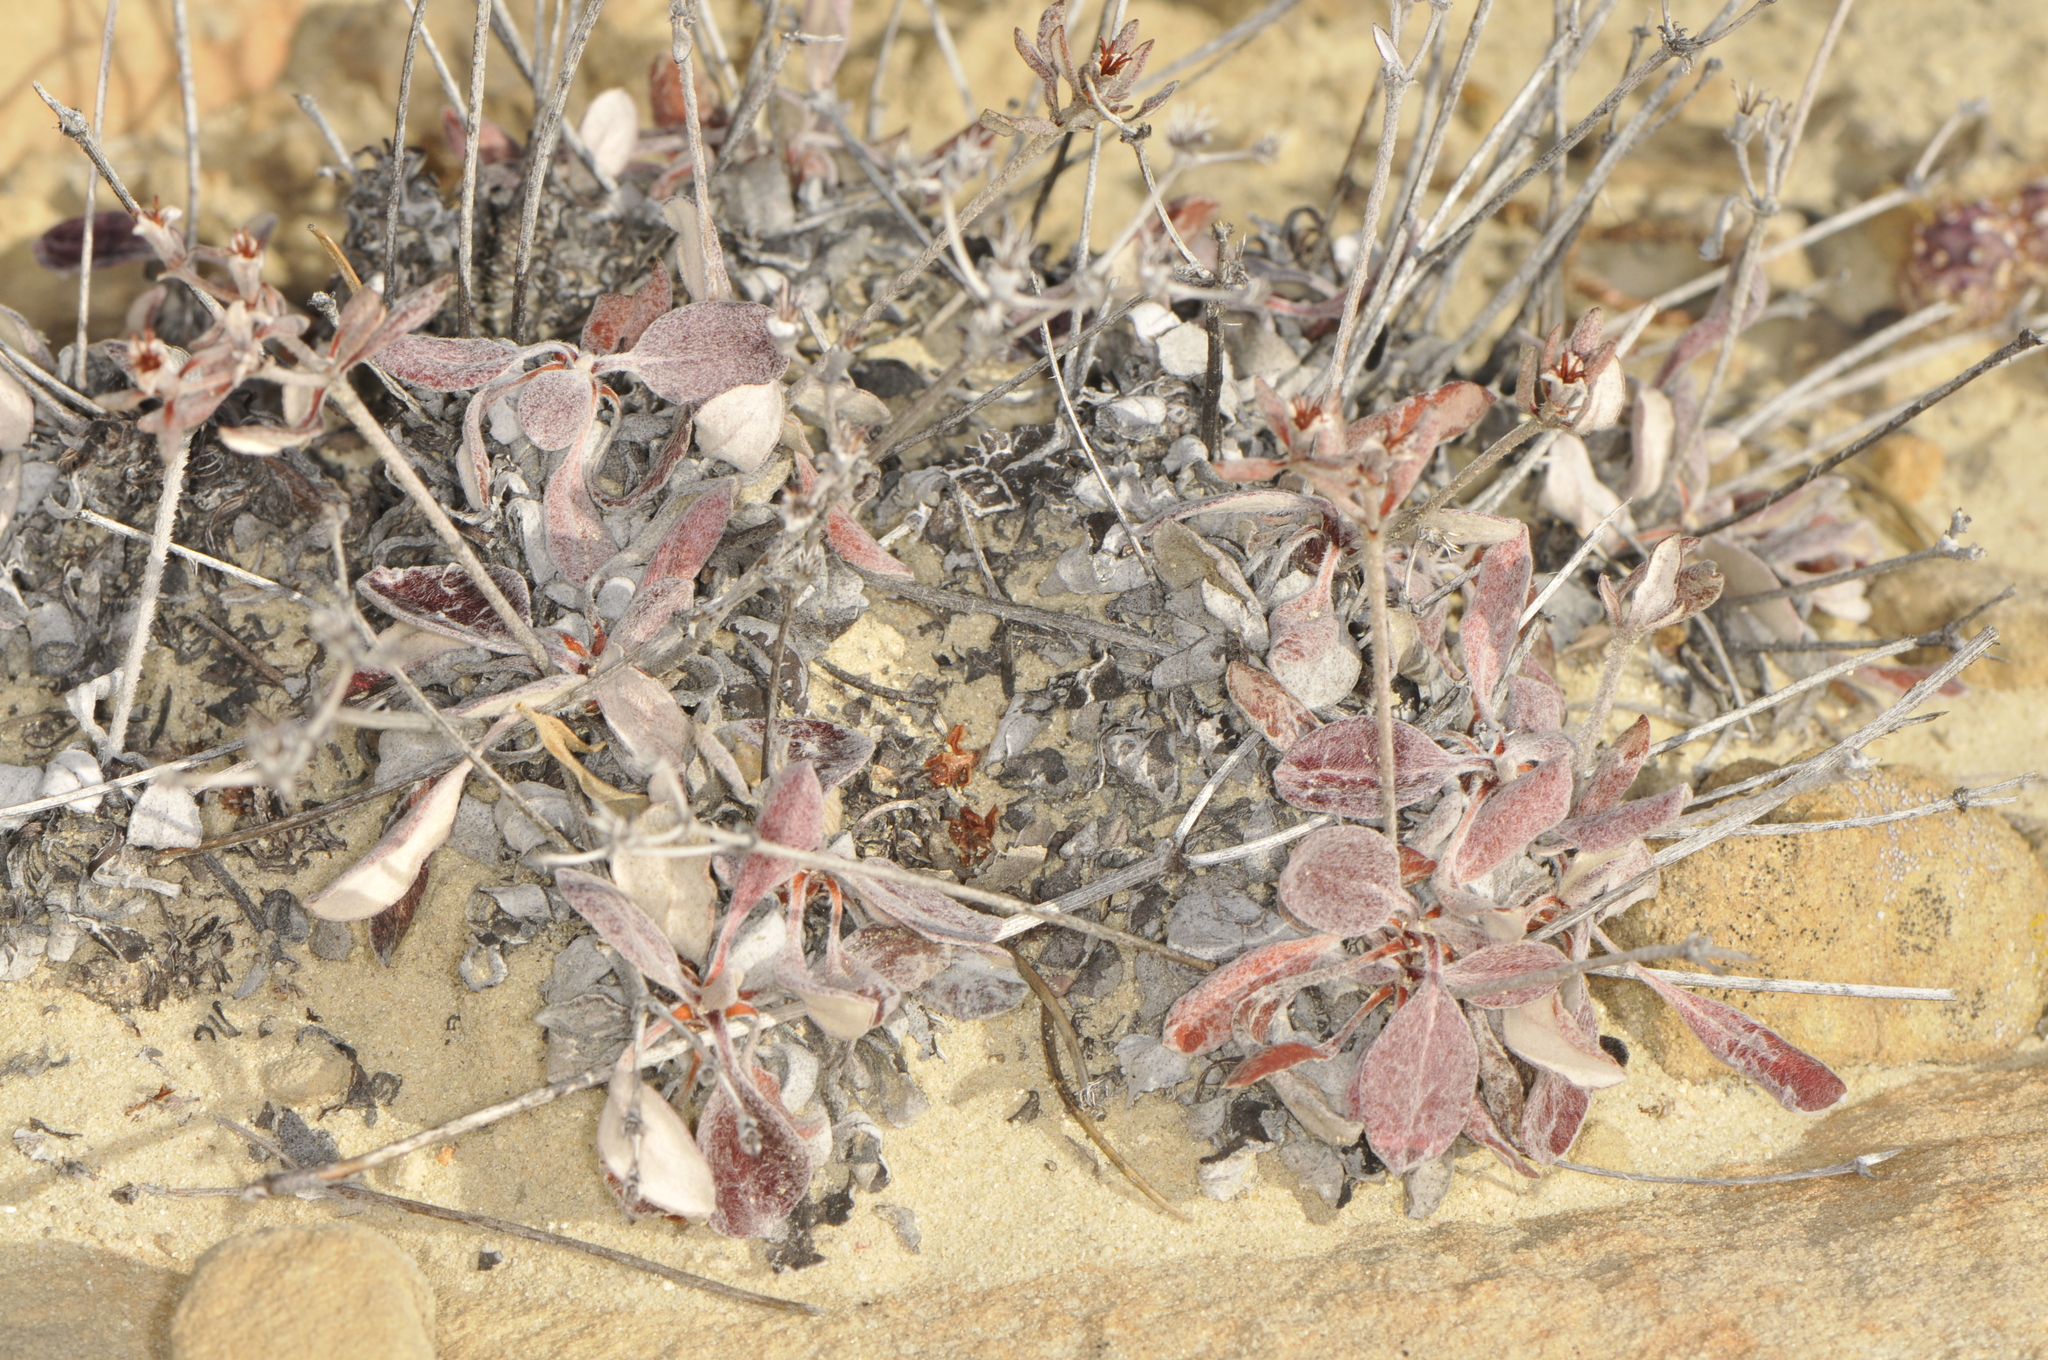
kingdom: Plantae
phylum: Tracheophyta
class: Magnoliopsida
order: Caryophyllales
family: Polygonaceae
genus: Eriogonum
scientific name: Eriogonum jamesii
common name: Antelope-sage
